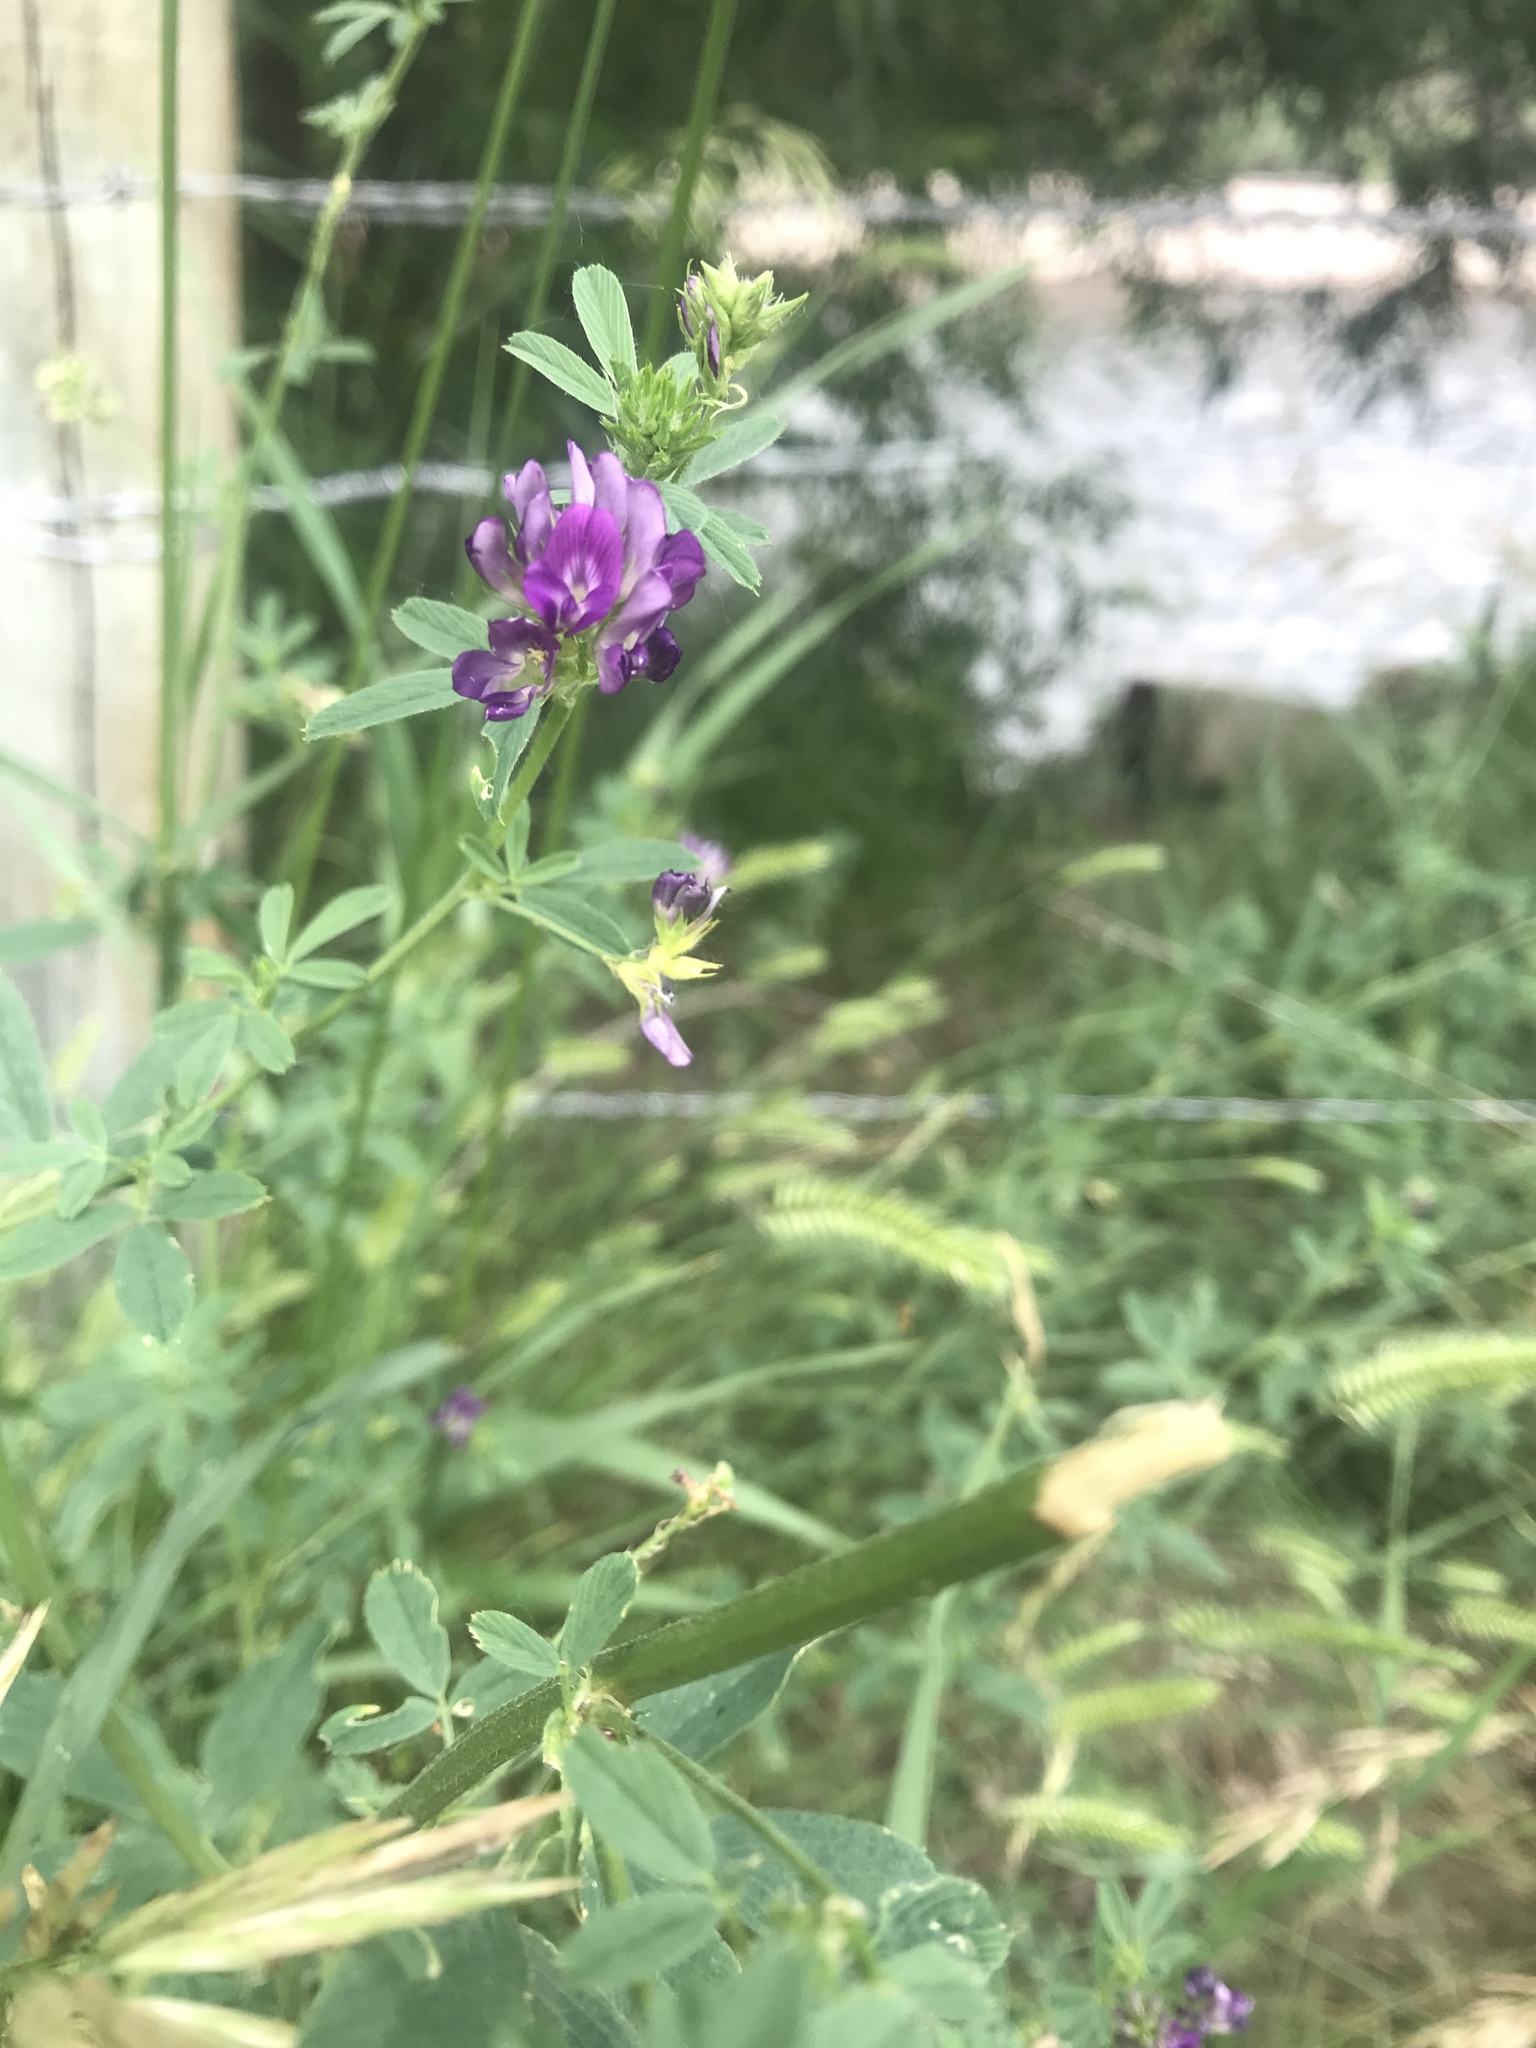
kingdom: Plantae
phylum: Tracheophyta
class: Magnoliopsida
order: Fabales
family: Fabaceae
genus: Medicago
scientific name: Medicago sativa
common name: Alfalfa
